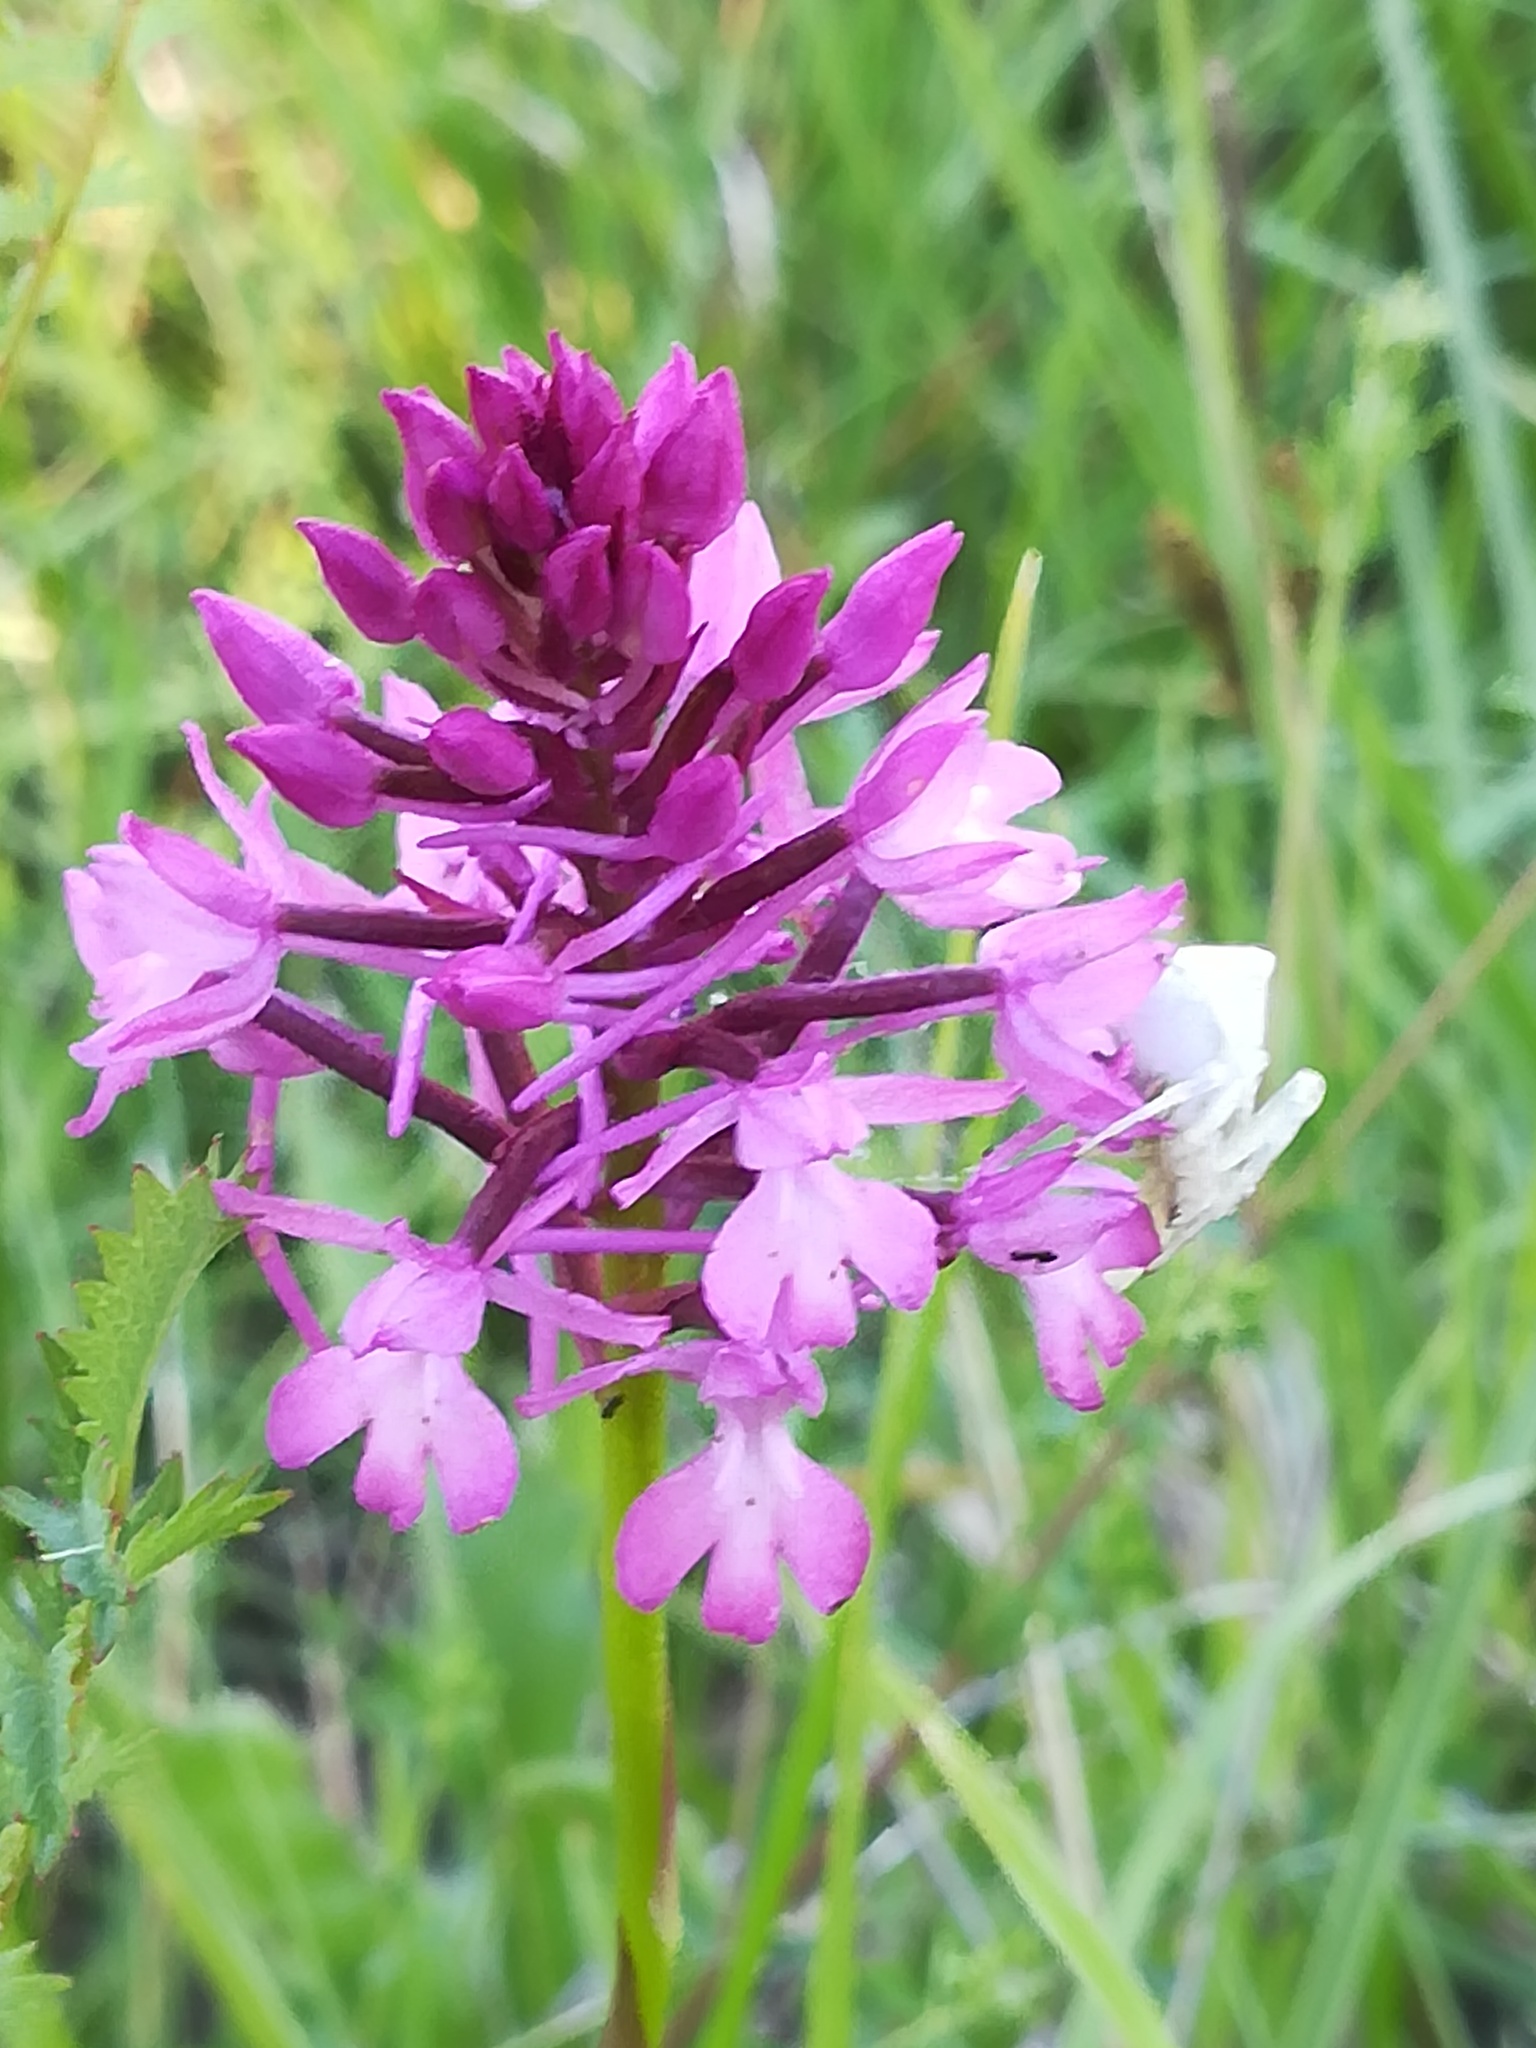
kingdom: Plantae
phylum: Tracheophyta
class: Liliopsida
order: Asparagales
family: Orchidaceae
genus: Anacamptis
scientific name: Anacamptis pyramidalis
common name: Pyramidal orchid
